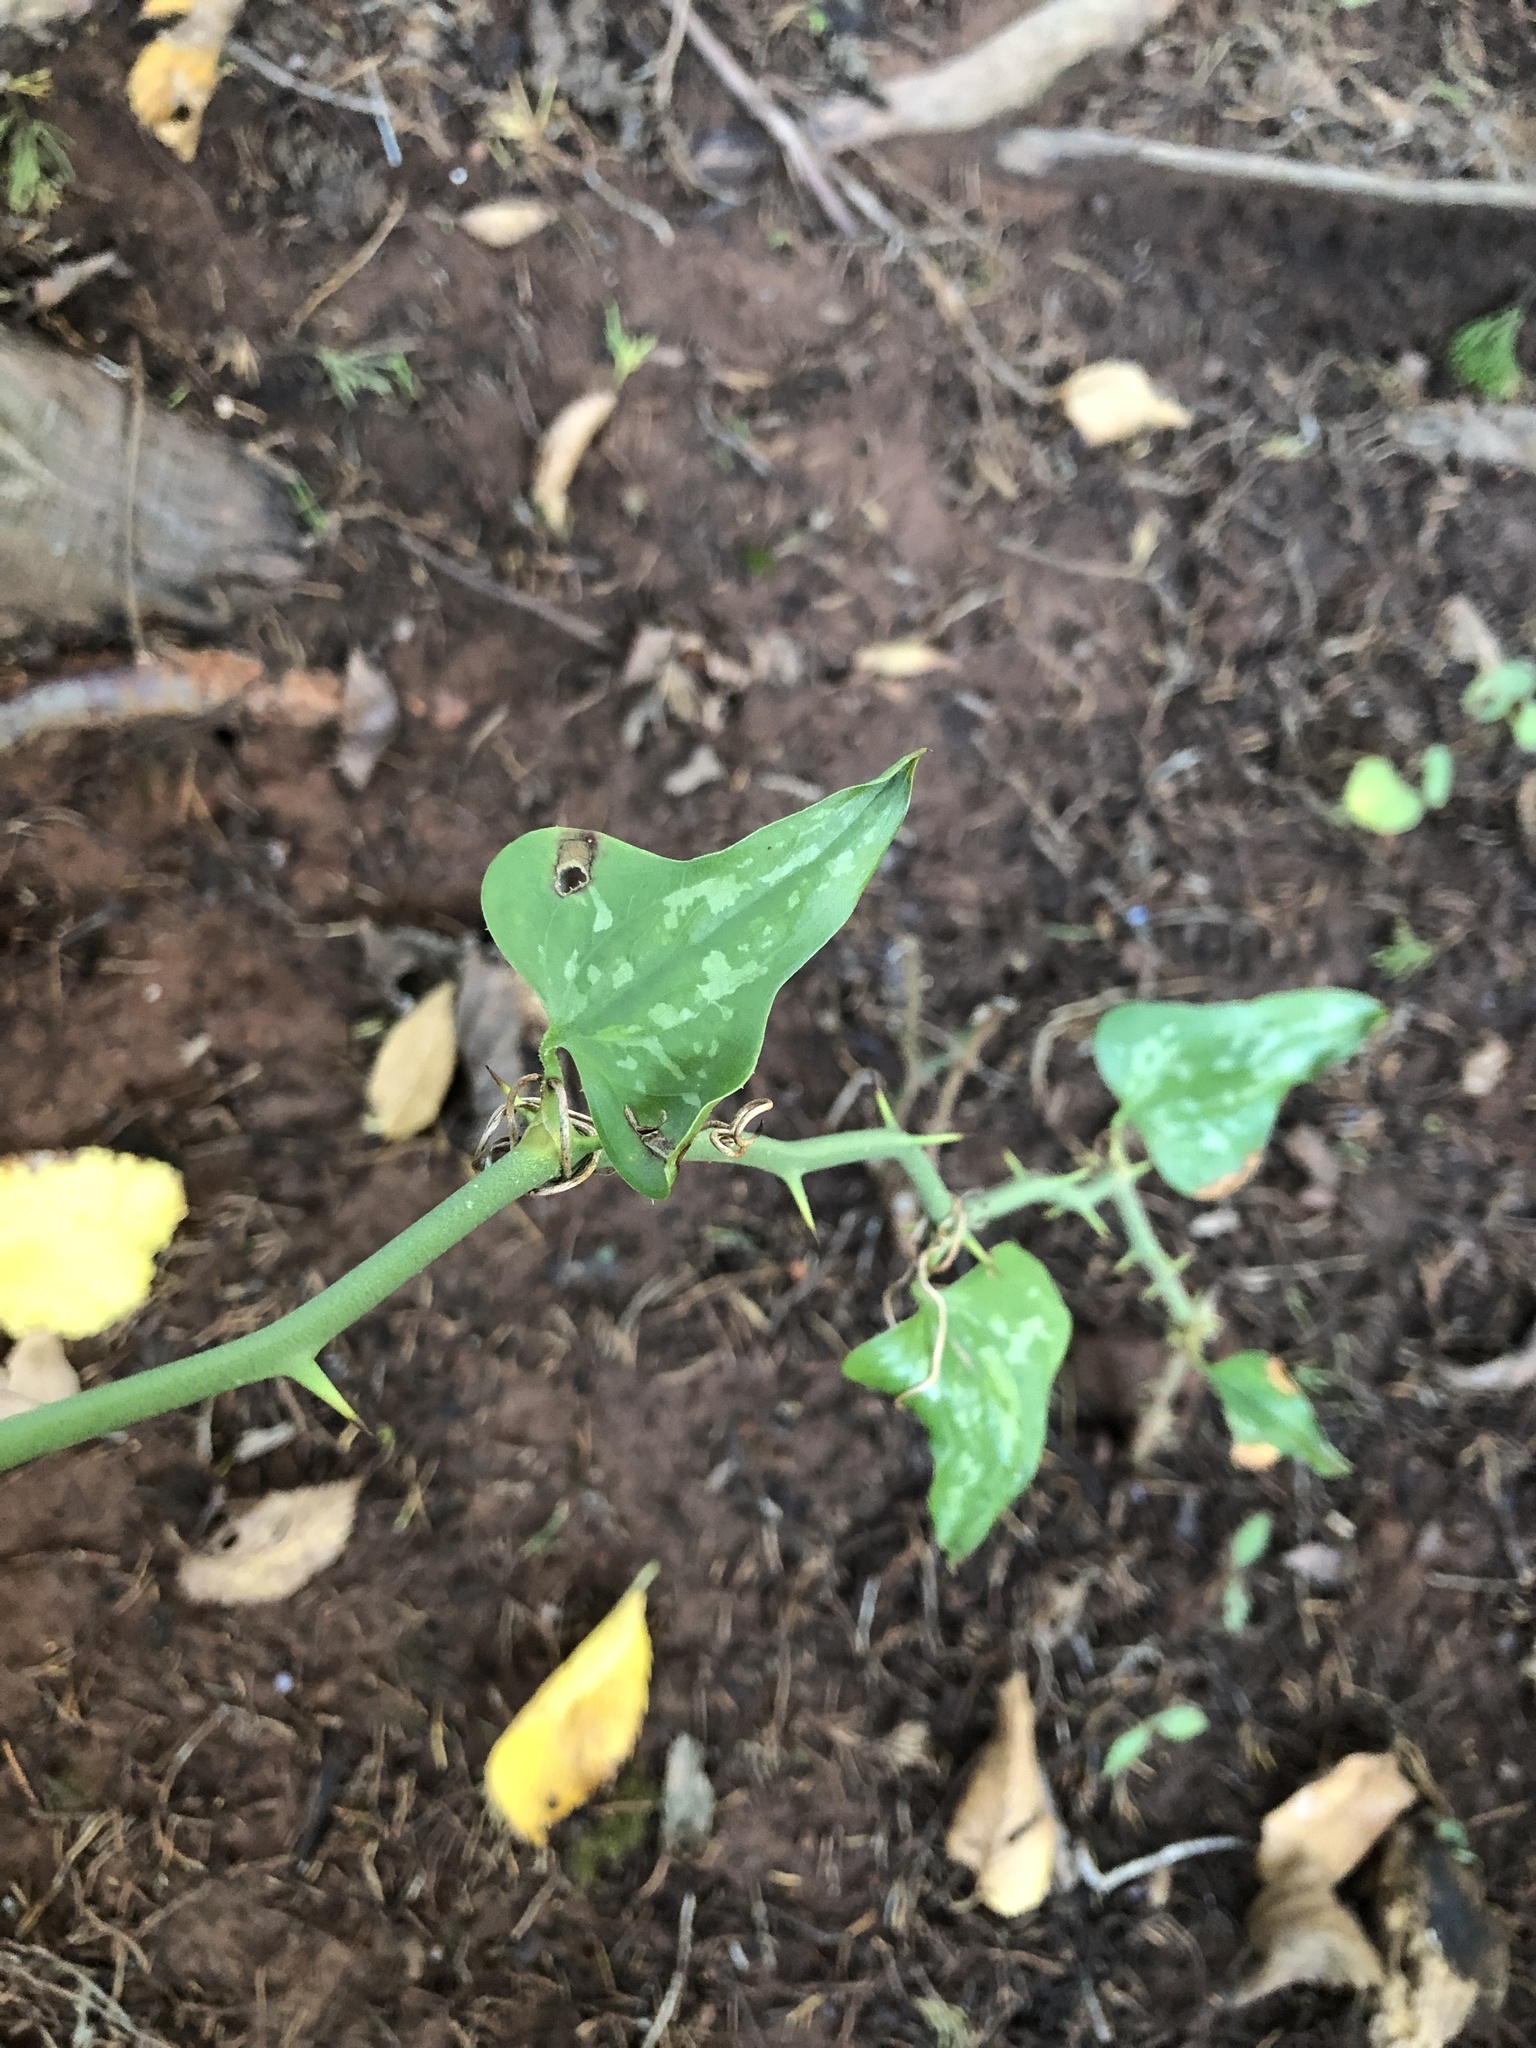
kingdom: Plantae
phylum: Tracheophyta
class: Liliopsida
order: Liliales
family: Smilacaceae
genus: Smilax
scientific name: Smilax bona-nox
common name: Catbrier
